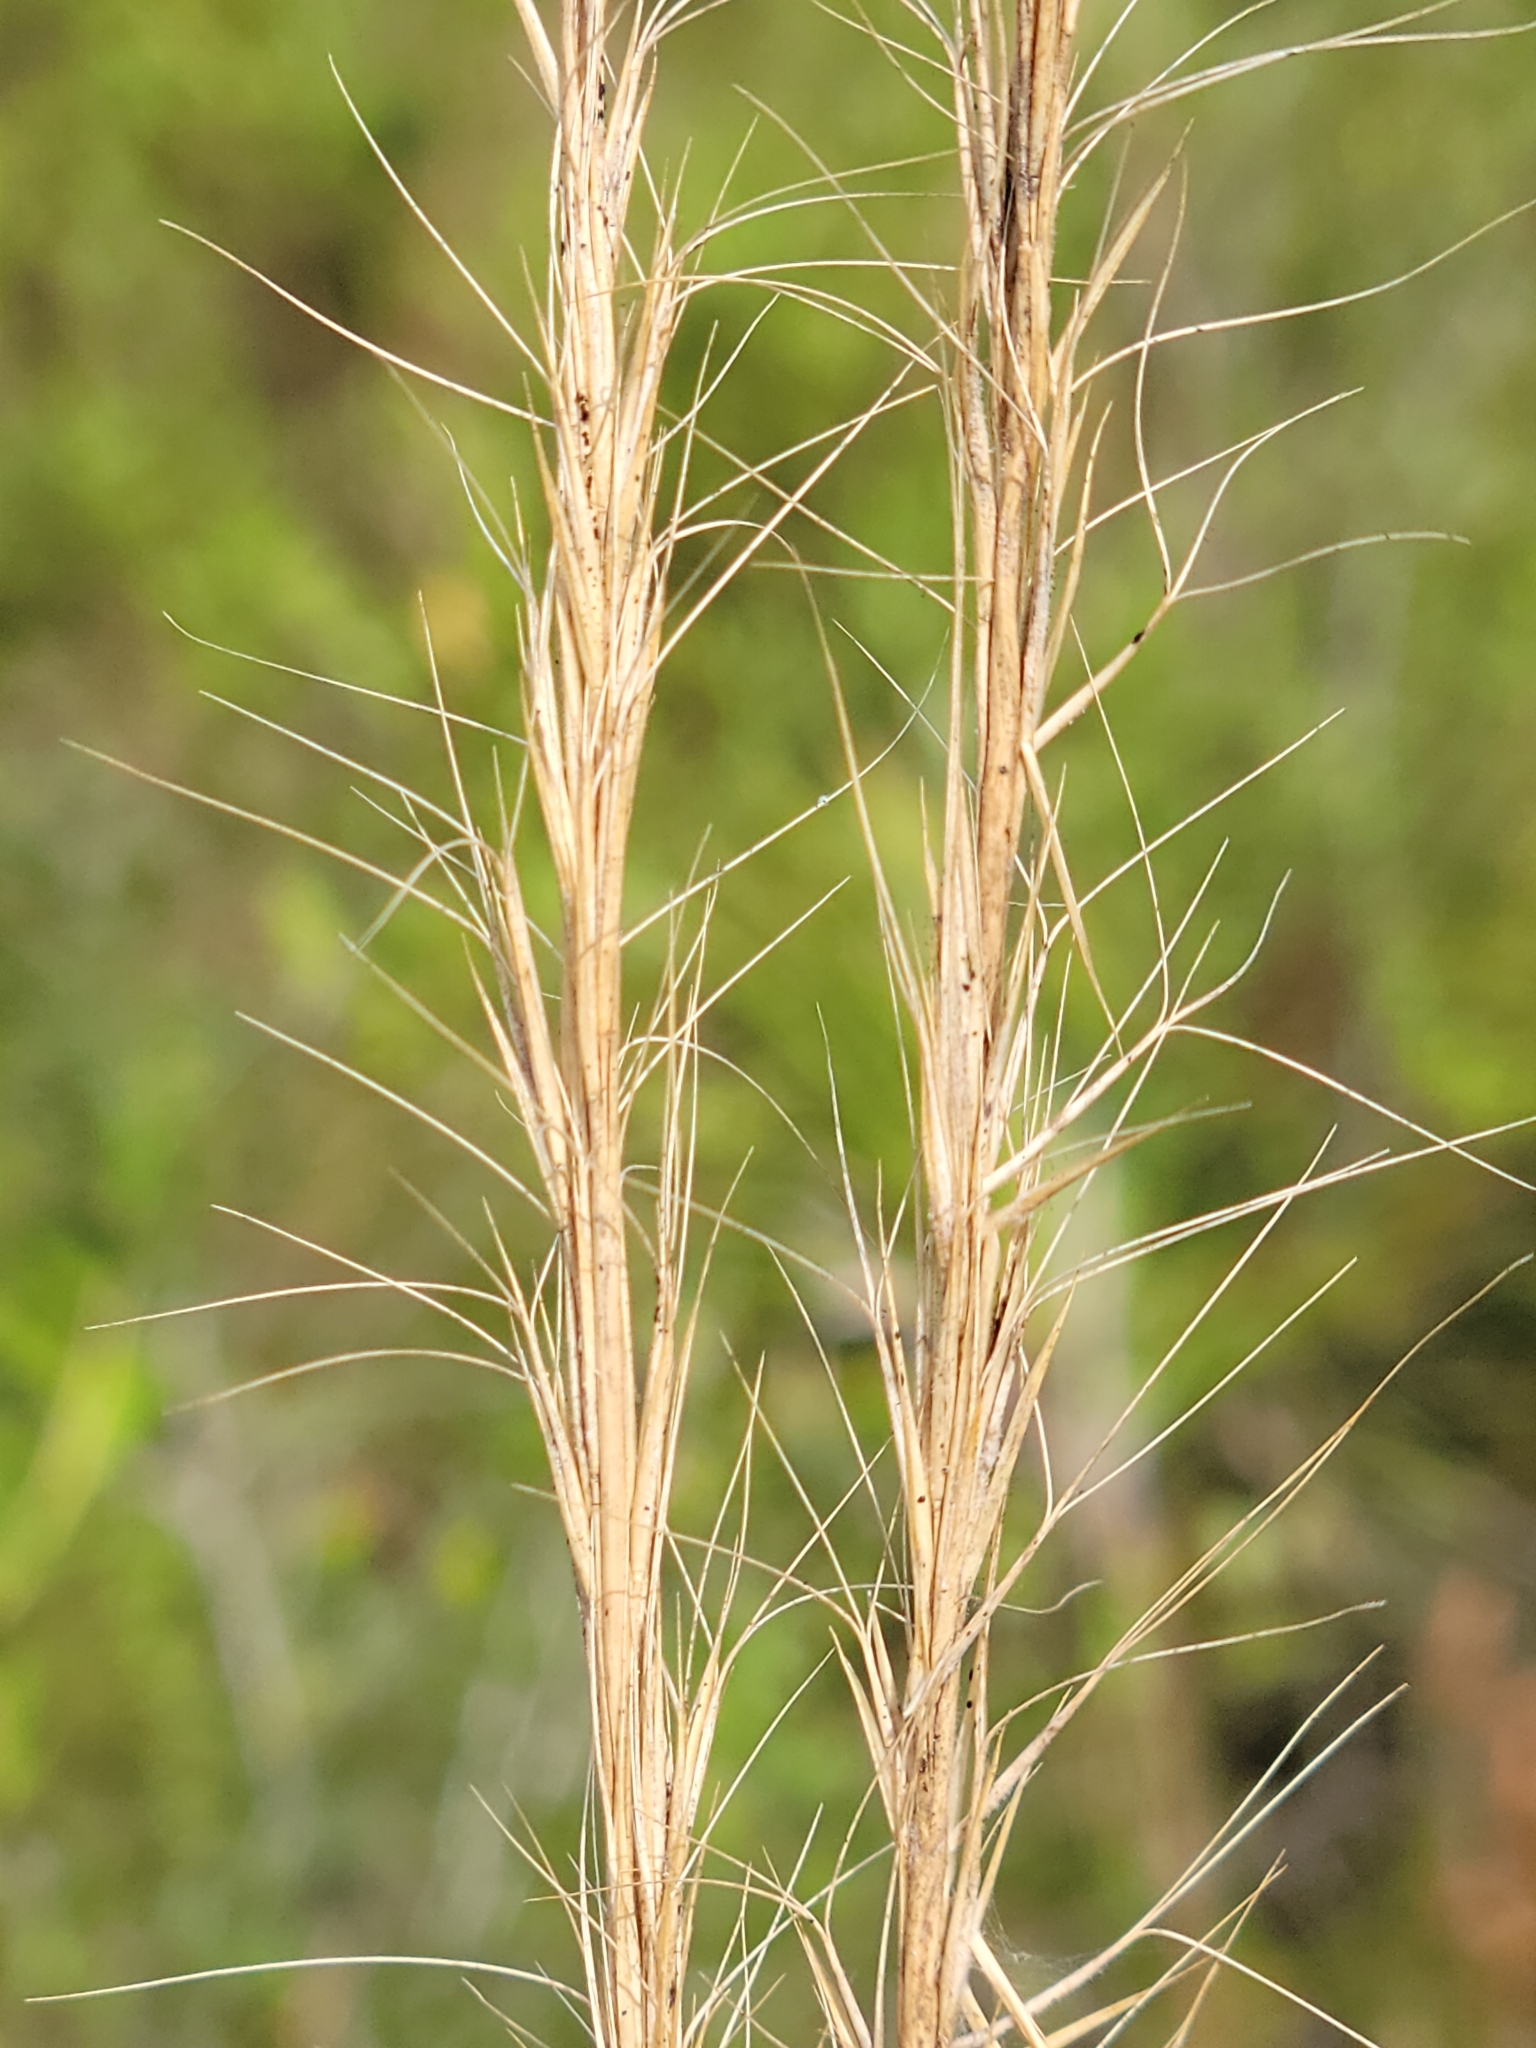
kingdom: Plantae
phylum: Tracheophyta
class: Liliopsida
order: Poales
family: Poaceae
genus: Aristida
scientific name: Aristida beyrichiana
